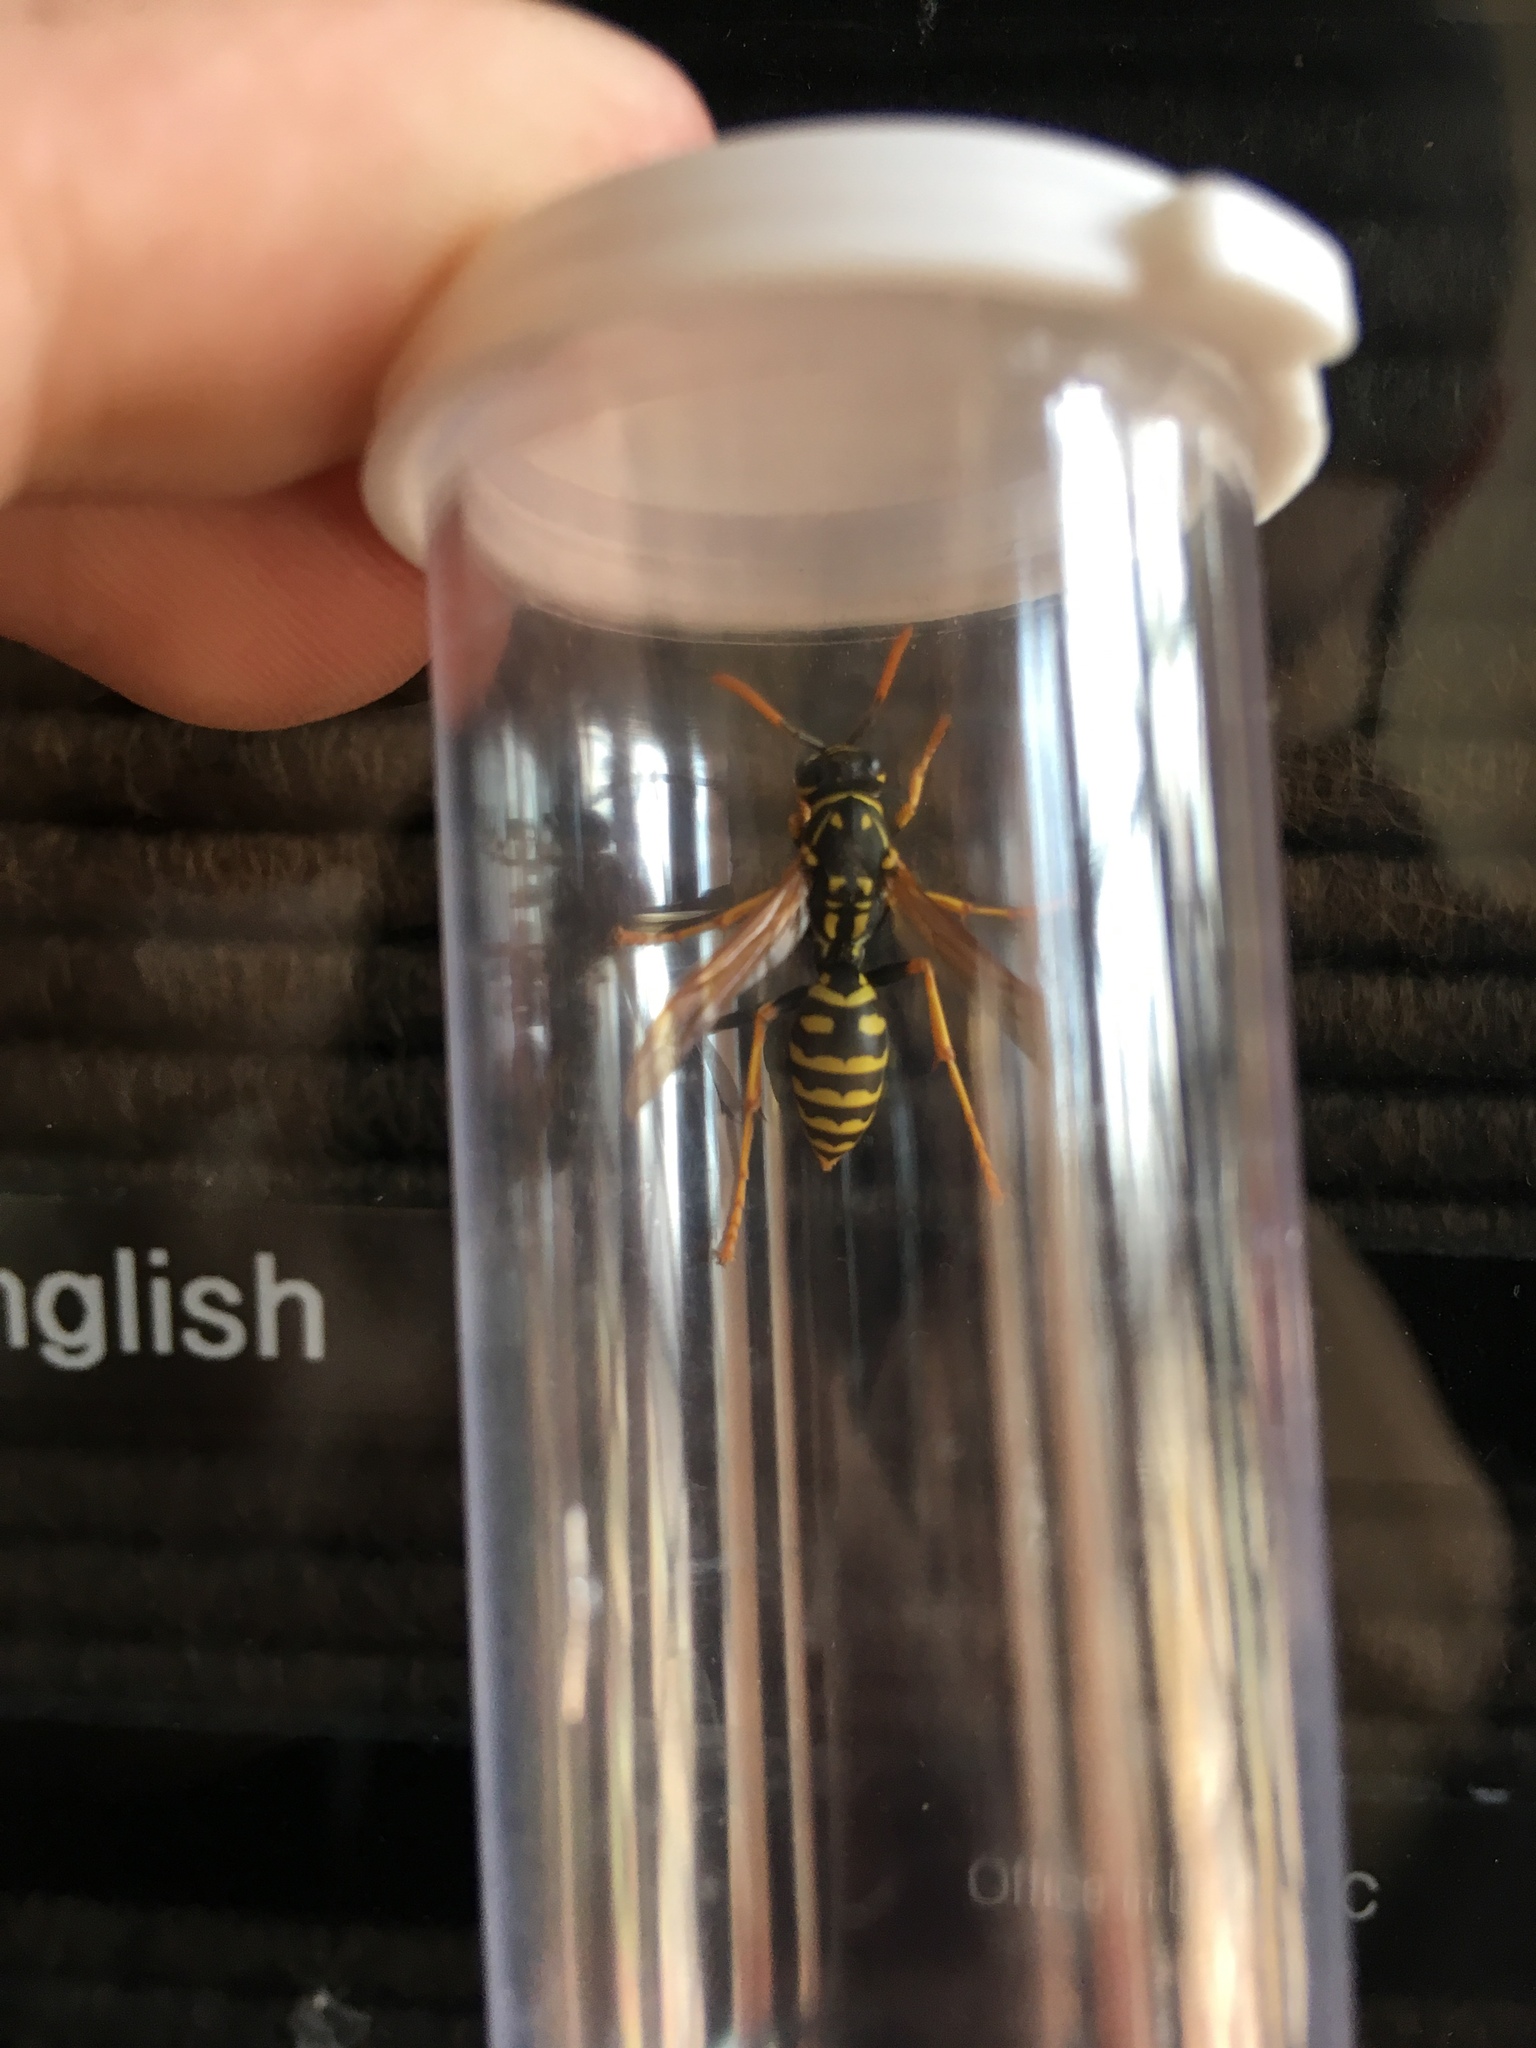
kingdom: Animalia
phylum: Arthropoda
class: Insecta
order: Hymenoptera
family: Eumenidae
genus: Polistes
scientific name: Polistes dominula
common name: Paper wasp
